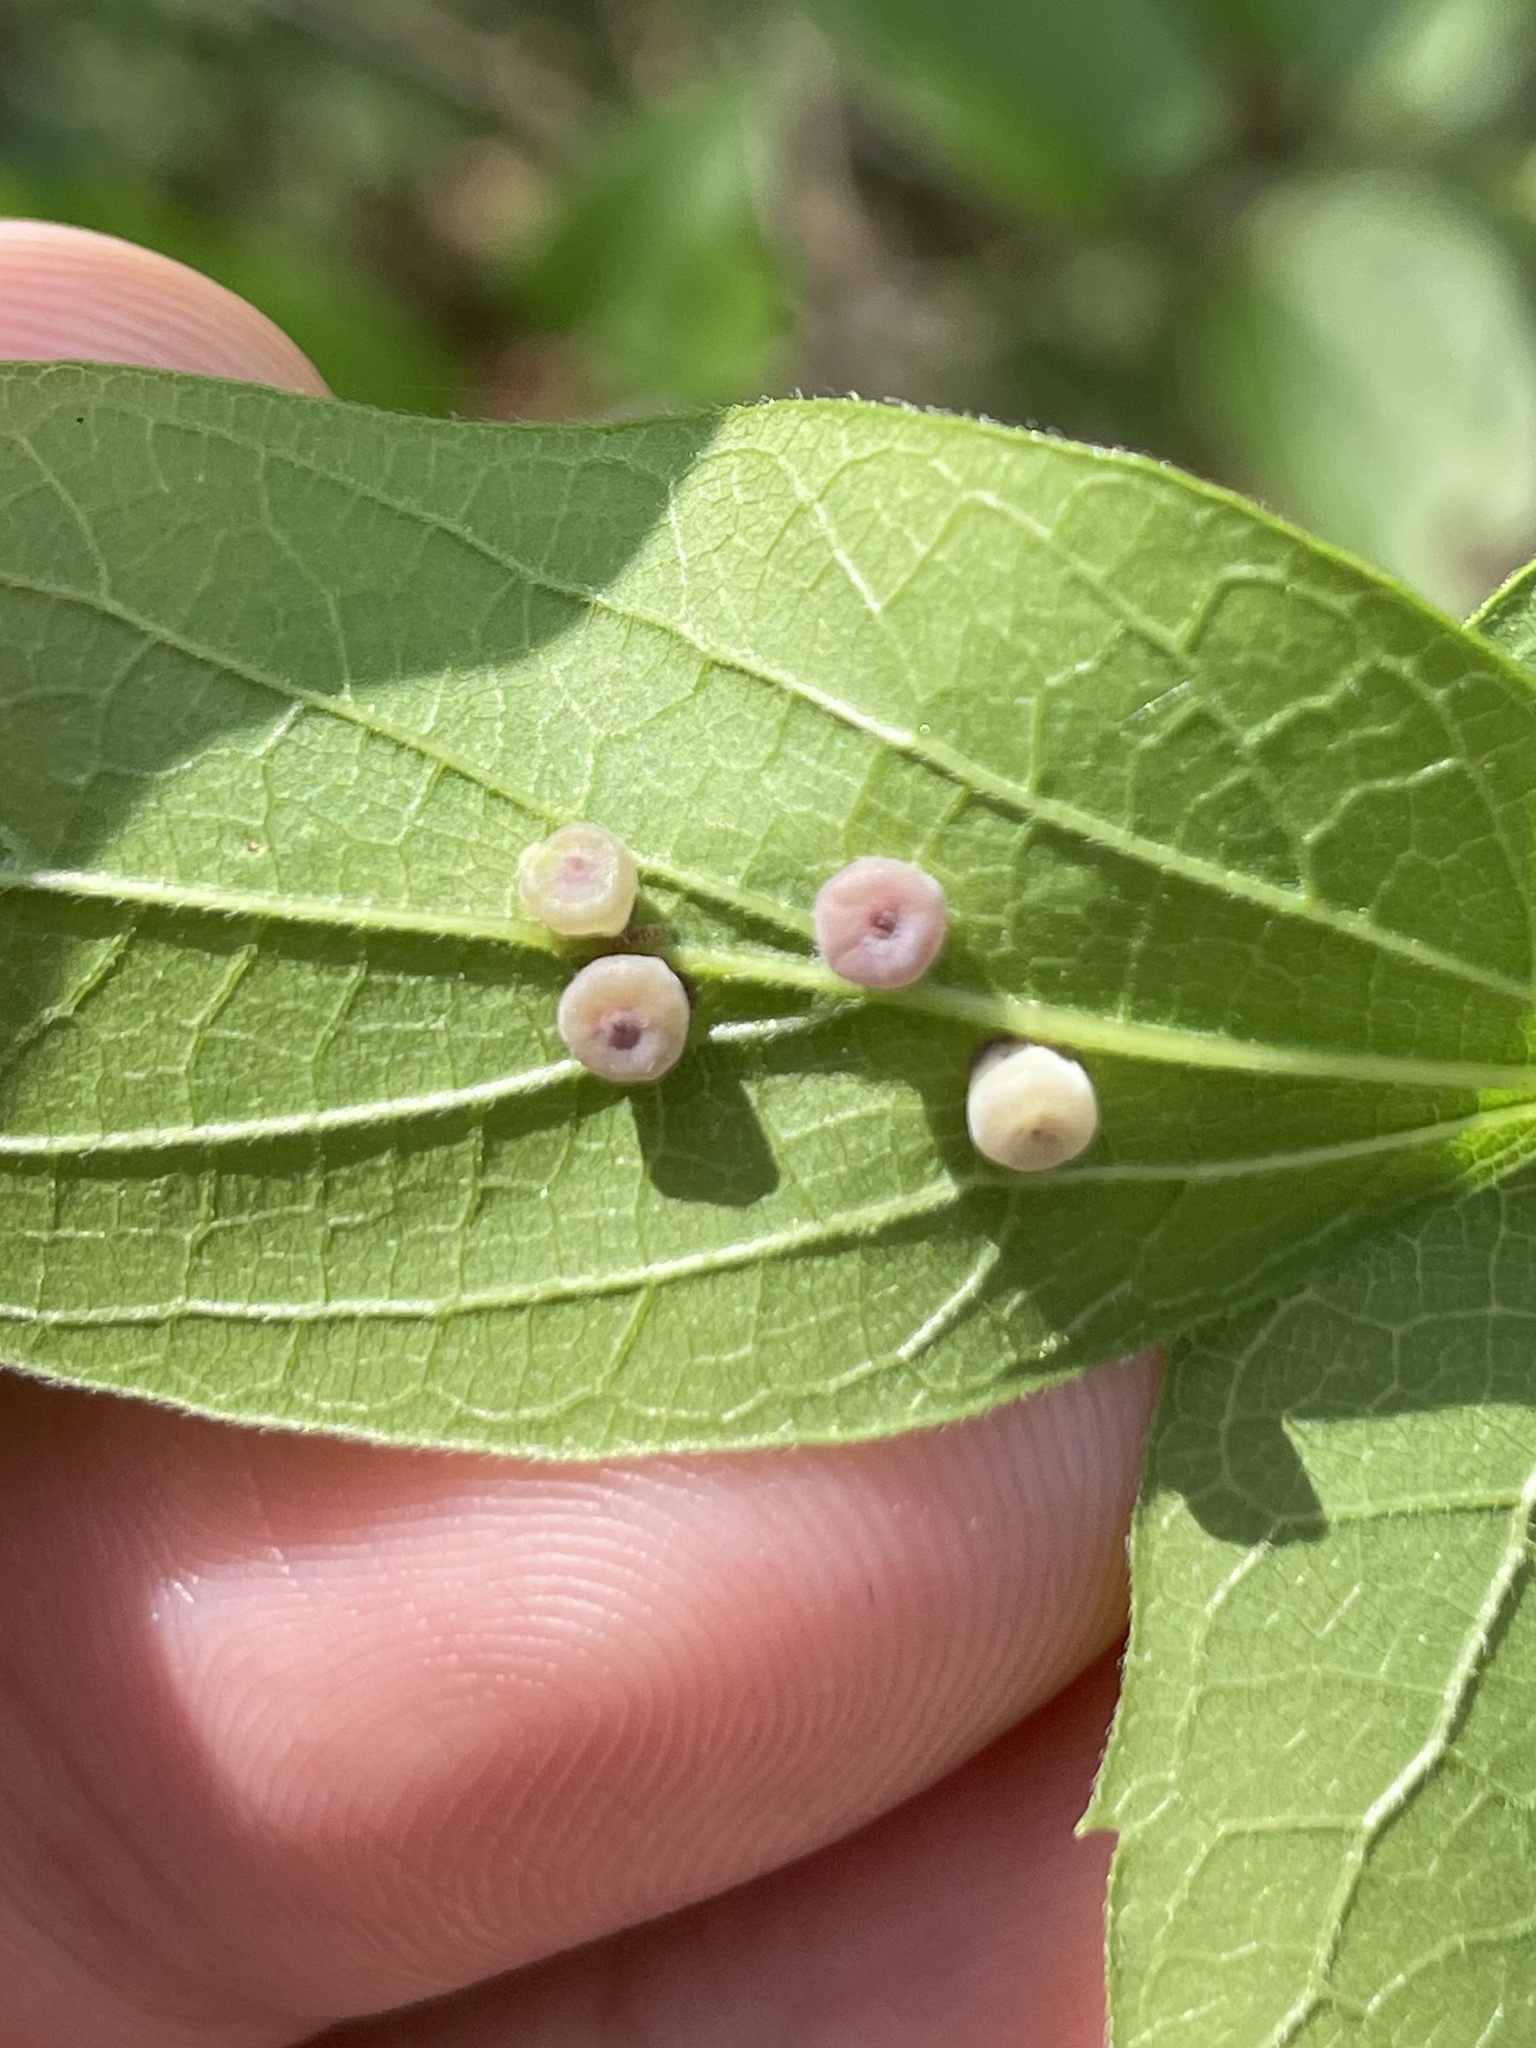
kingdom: Animalia
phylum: Arthropoda
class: Insecta
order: Hemiptera
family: Aphalaridae
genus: Pachypsylla
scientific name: Pachypsylla celtidismamma
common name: Hackberry nipplegall psyllid
